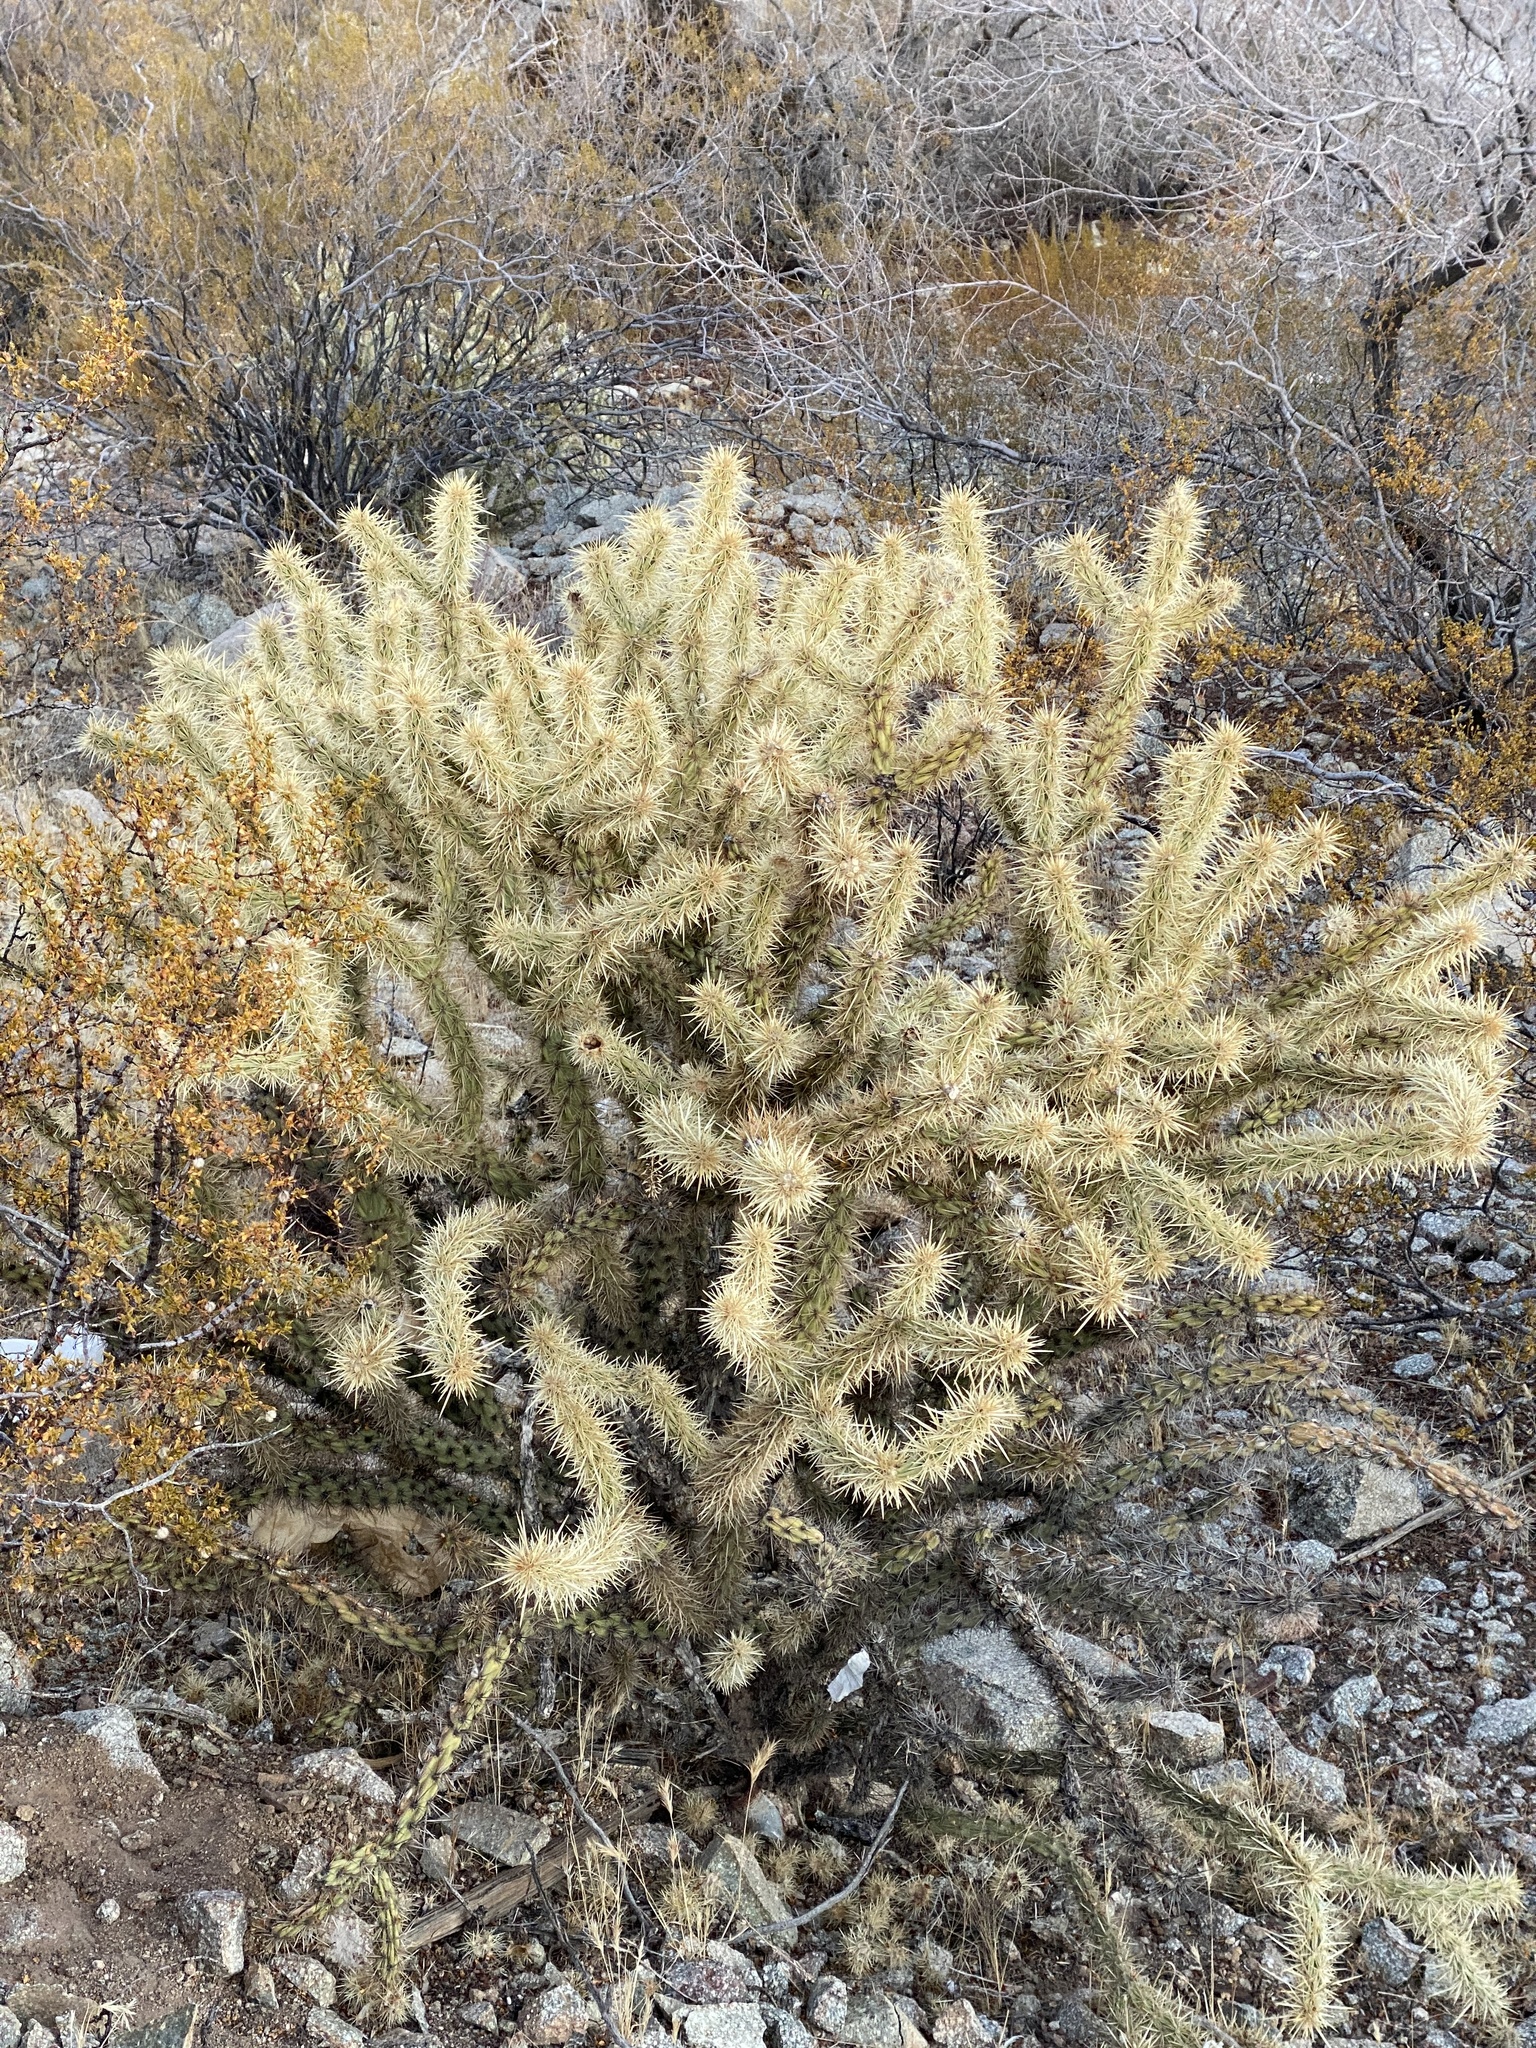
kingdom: Plantae
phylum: Tracheophyta
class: Magnoliopsida
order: Caryophyllales
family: Cactaceae
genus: Cylindropuntia
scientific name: Cylindropuntia acanthocarpa
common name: Buckhorn cholla
